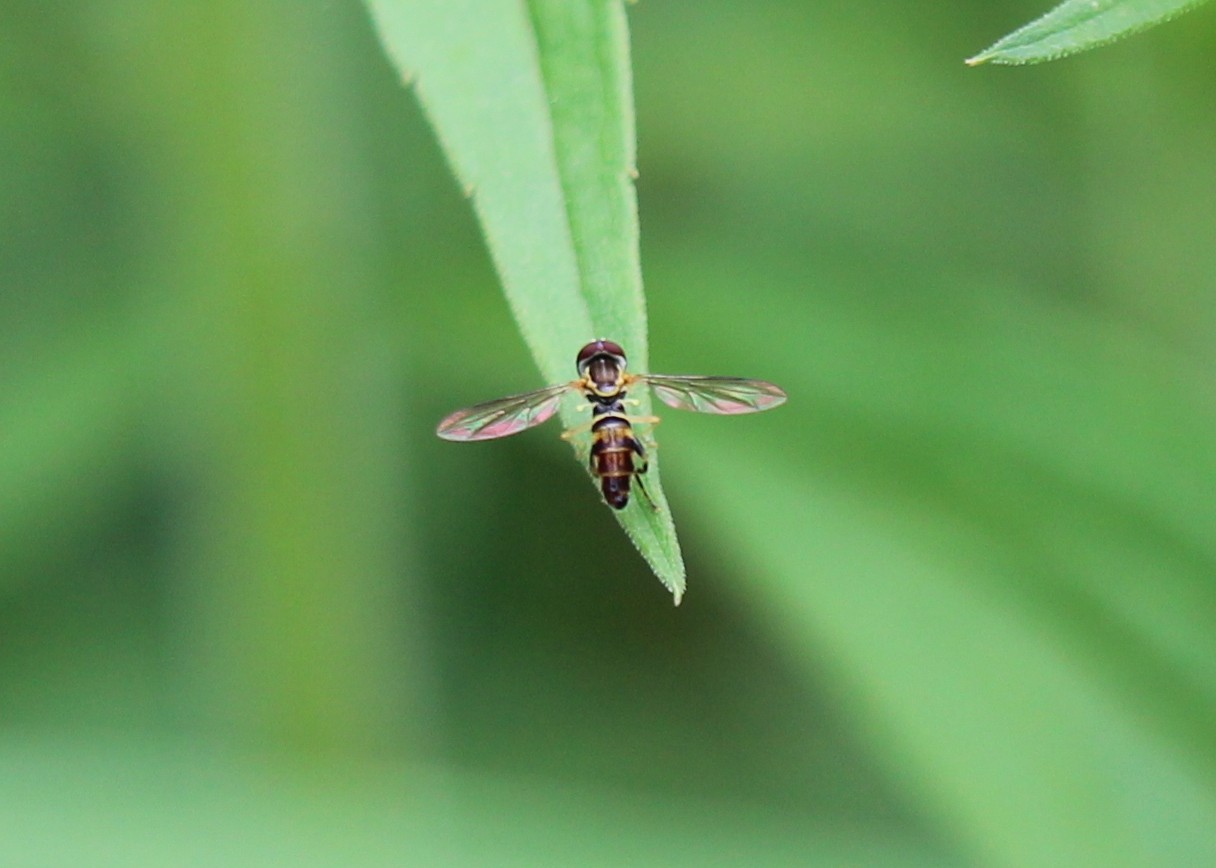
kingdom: Animalia
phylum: Arthropoda
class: Insecta
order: Diptera
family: Syrphidae
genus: Toxomerus
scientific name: Toxomerus geminatus
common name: Eastern calligrapher
